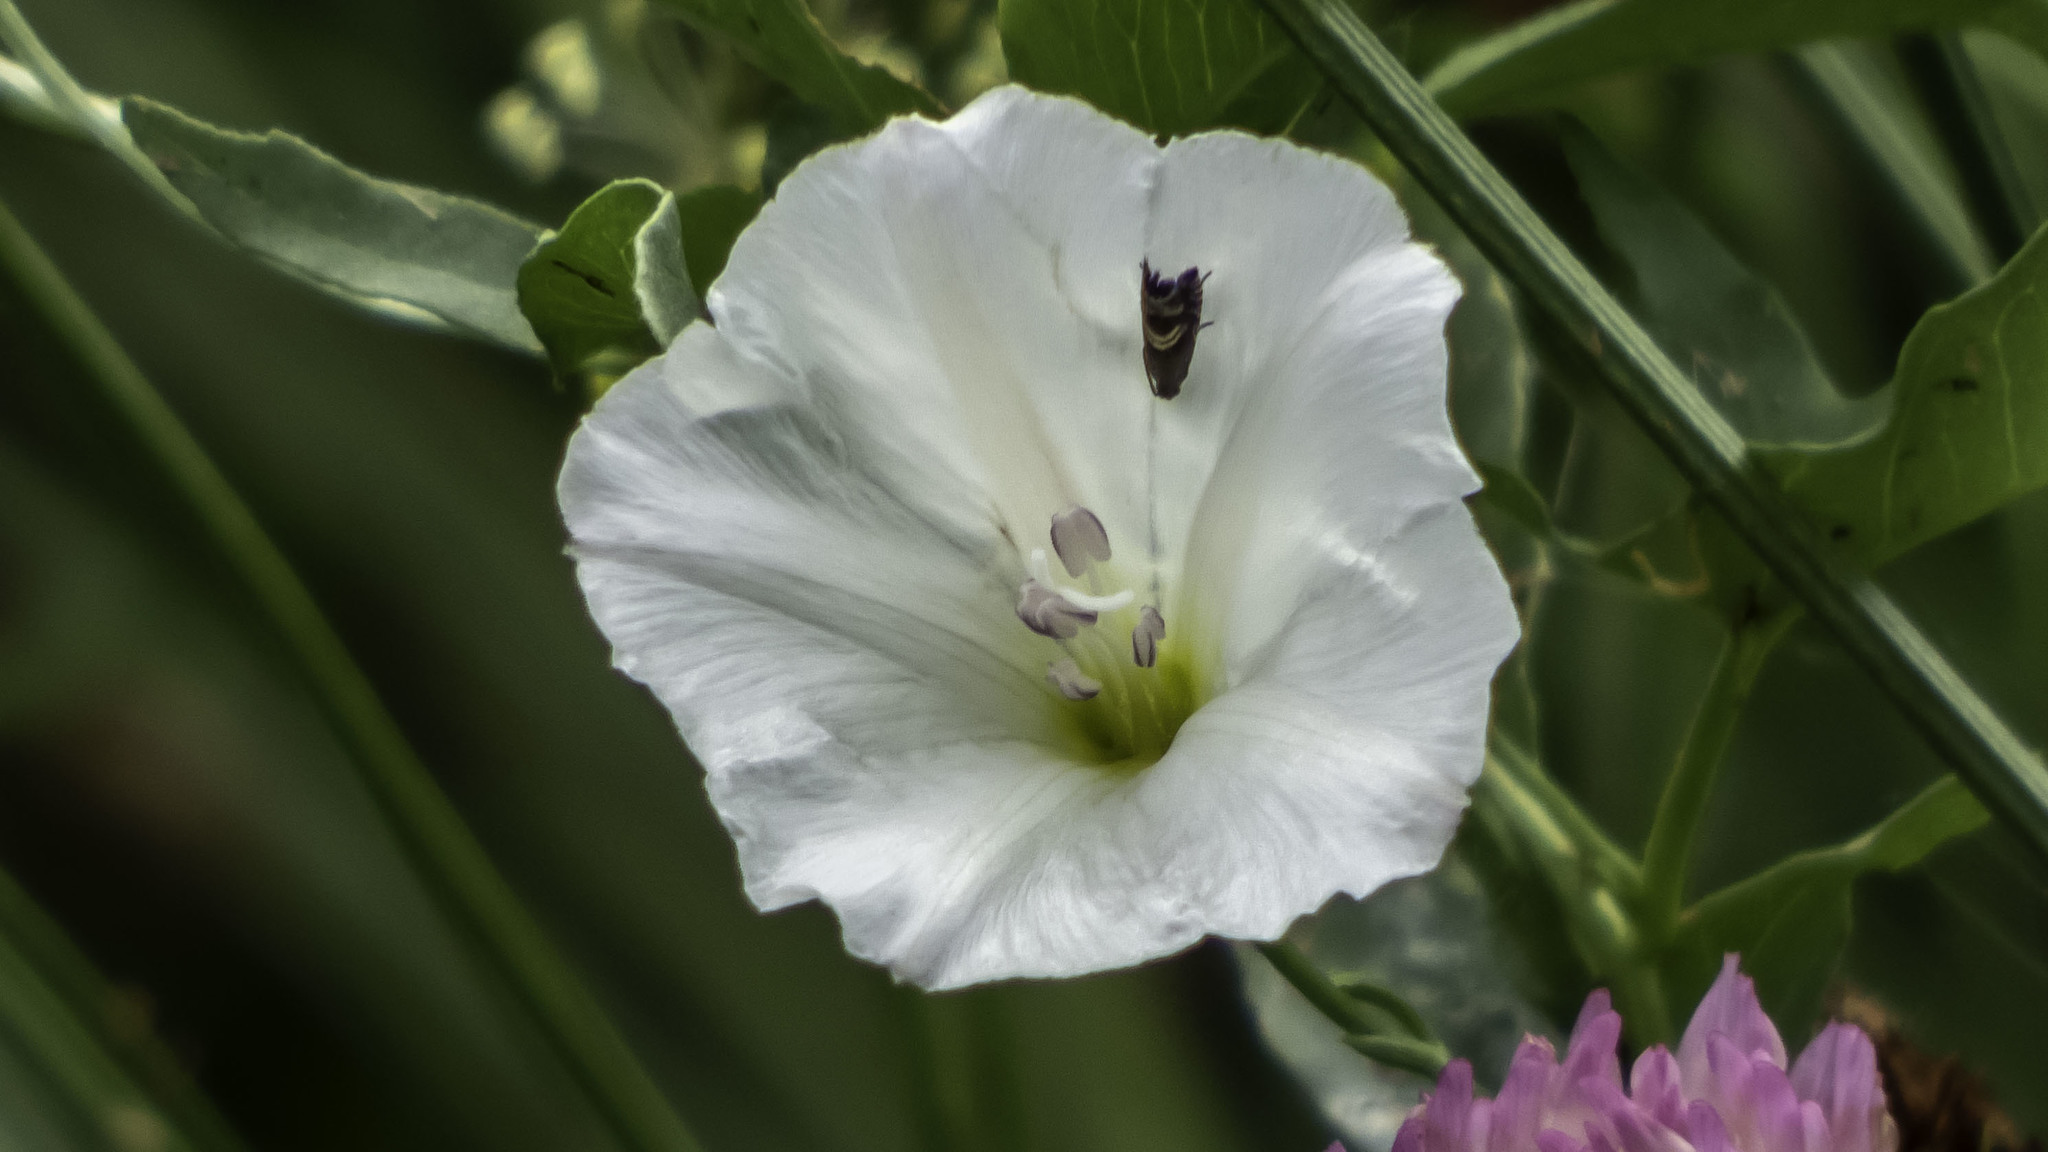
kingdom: Plantae
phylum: Tracheophyta
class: Magnoliopsida
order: Solanales
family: Convolvulaceae
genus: Convolvulus
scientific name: Convolvulus arvensis
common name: Field bindweed
